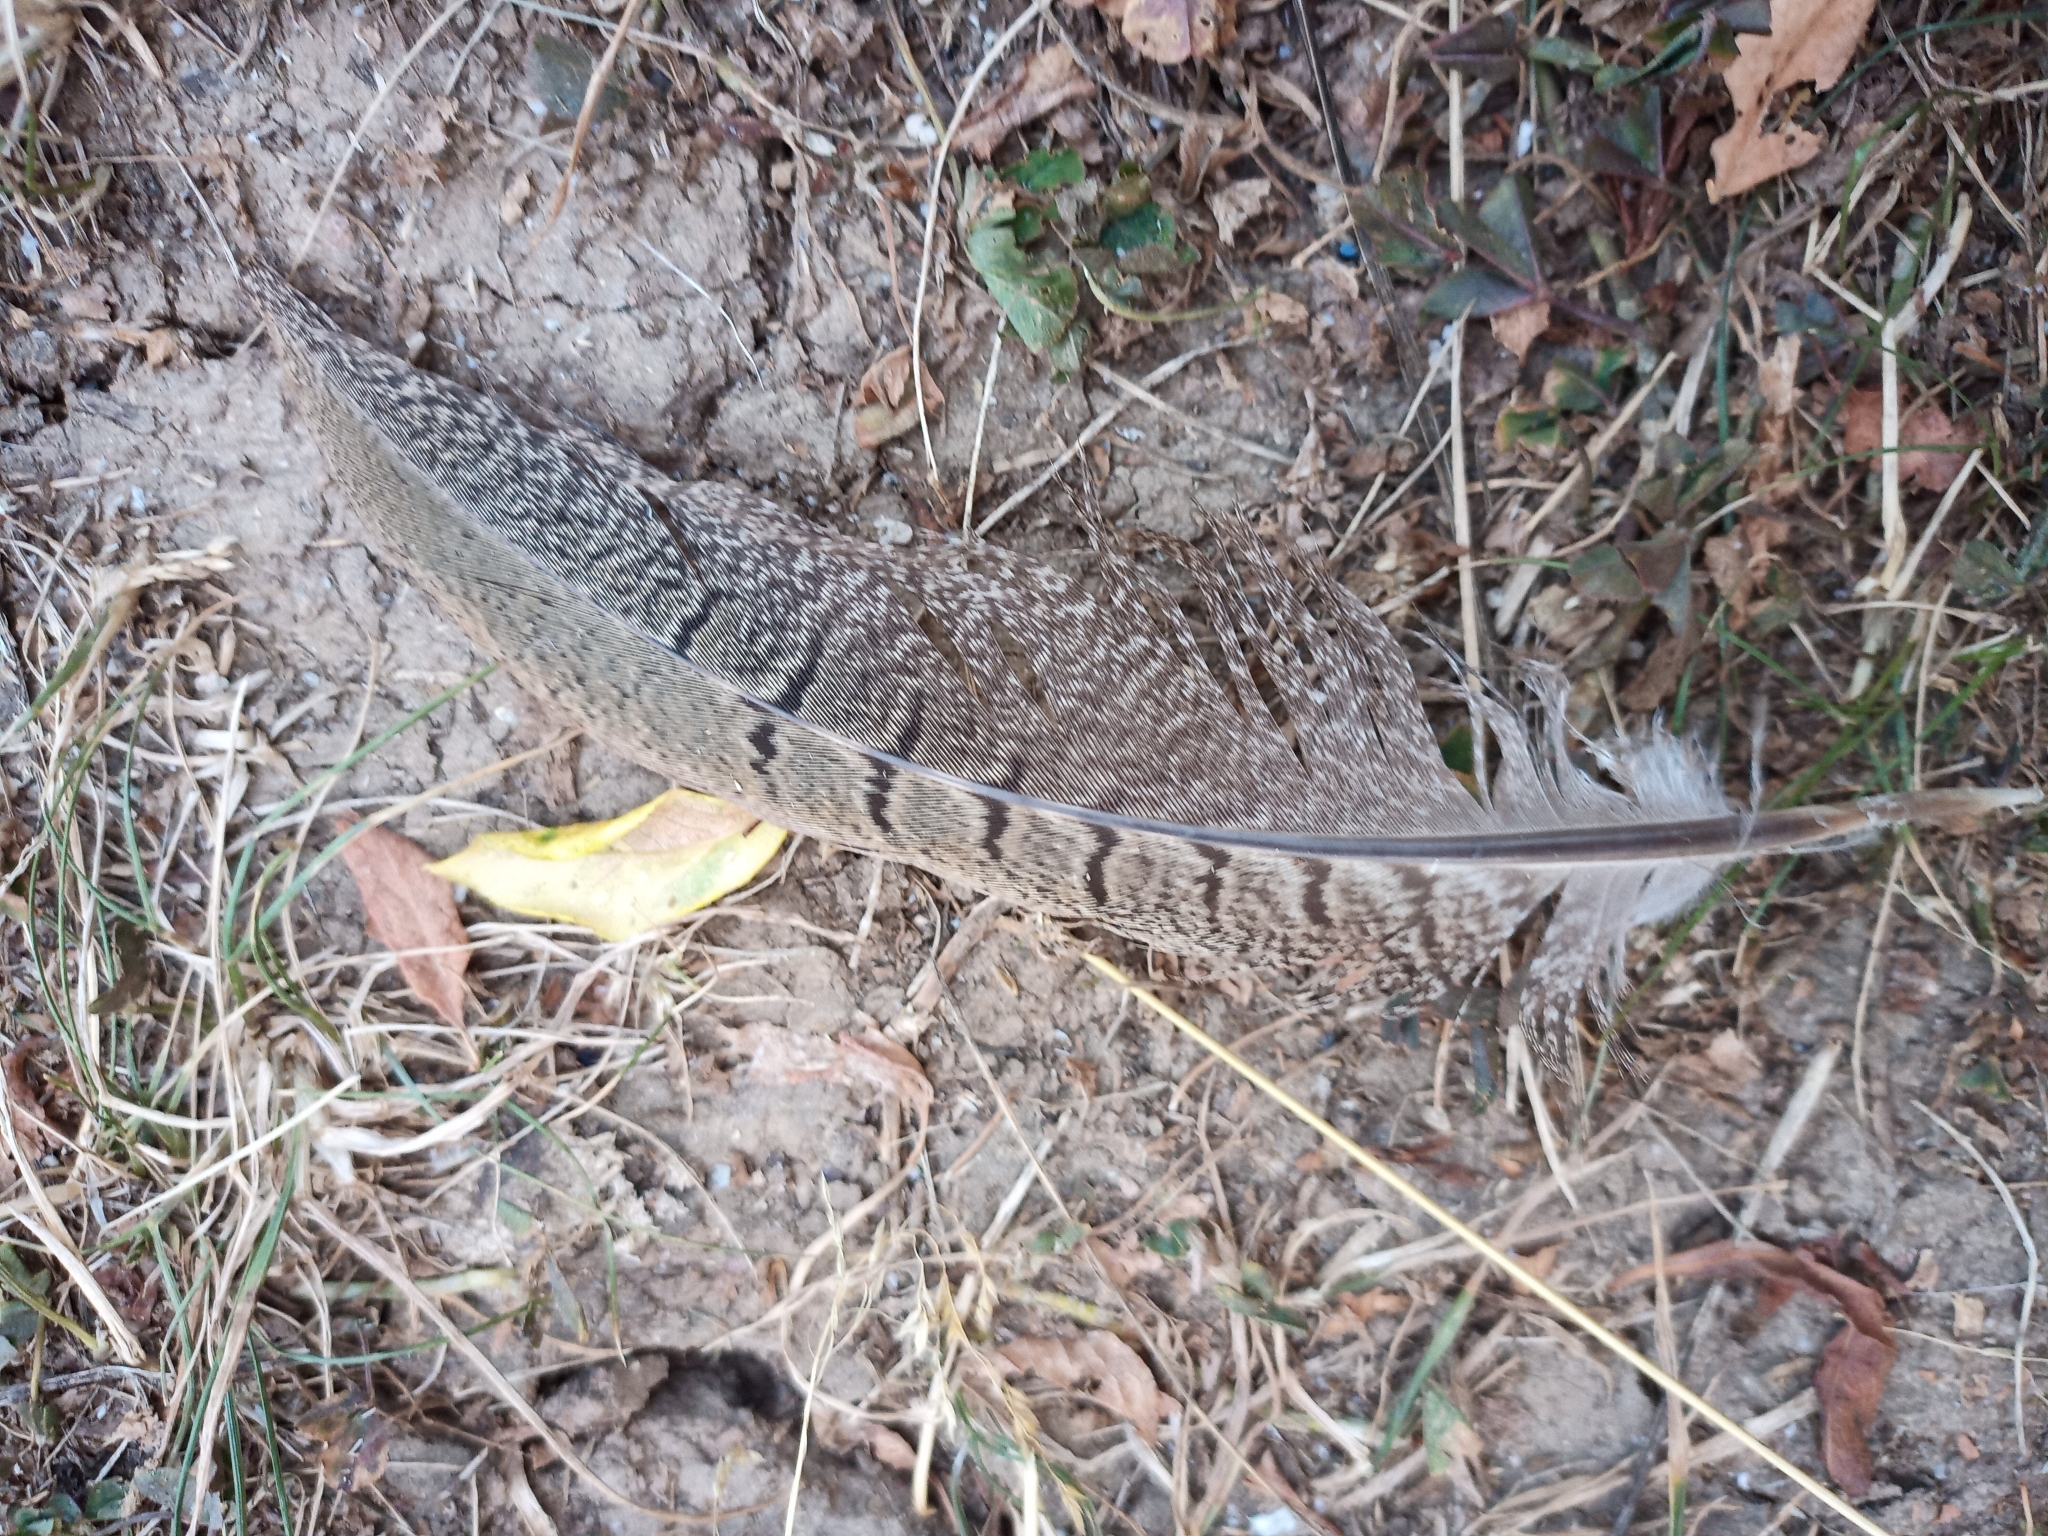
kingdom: Animalia
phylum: Chordata
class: Aves
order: Galliformes
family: Phasianidae
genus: Phasianus
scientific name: Phasianus colchicus
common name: Common pheasant
